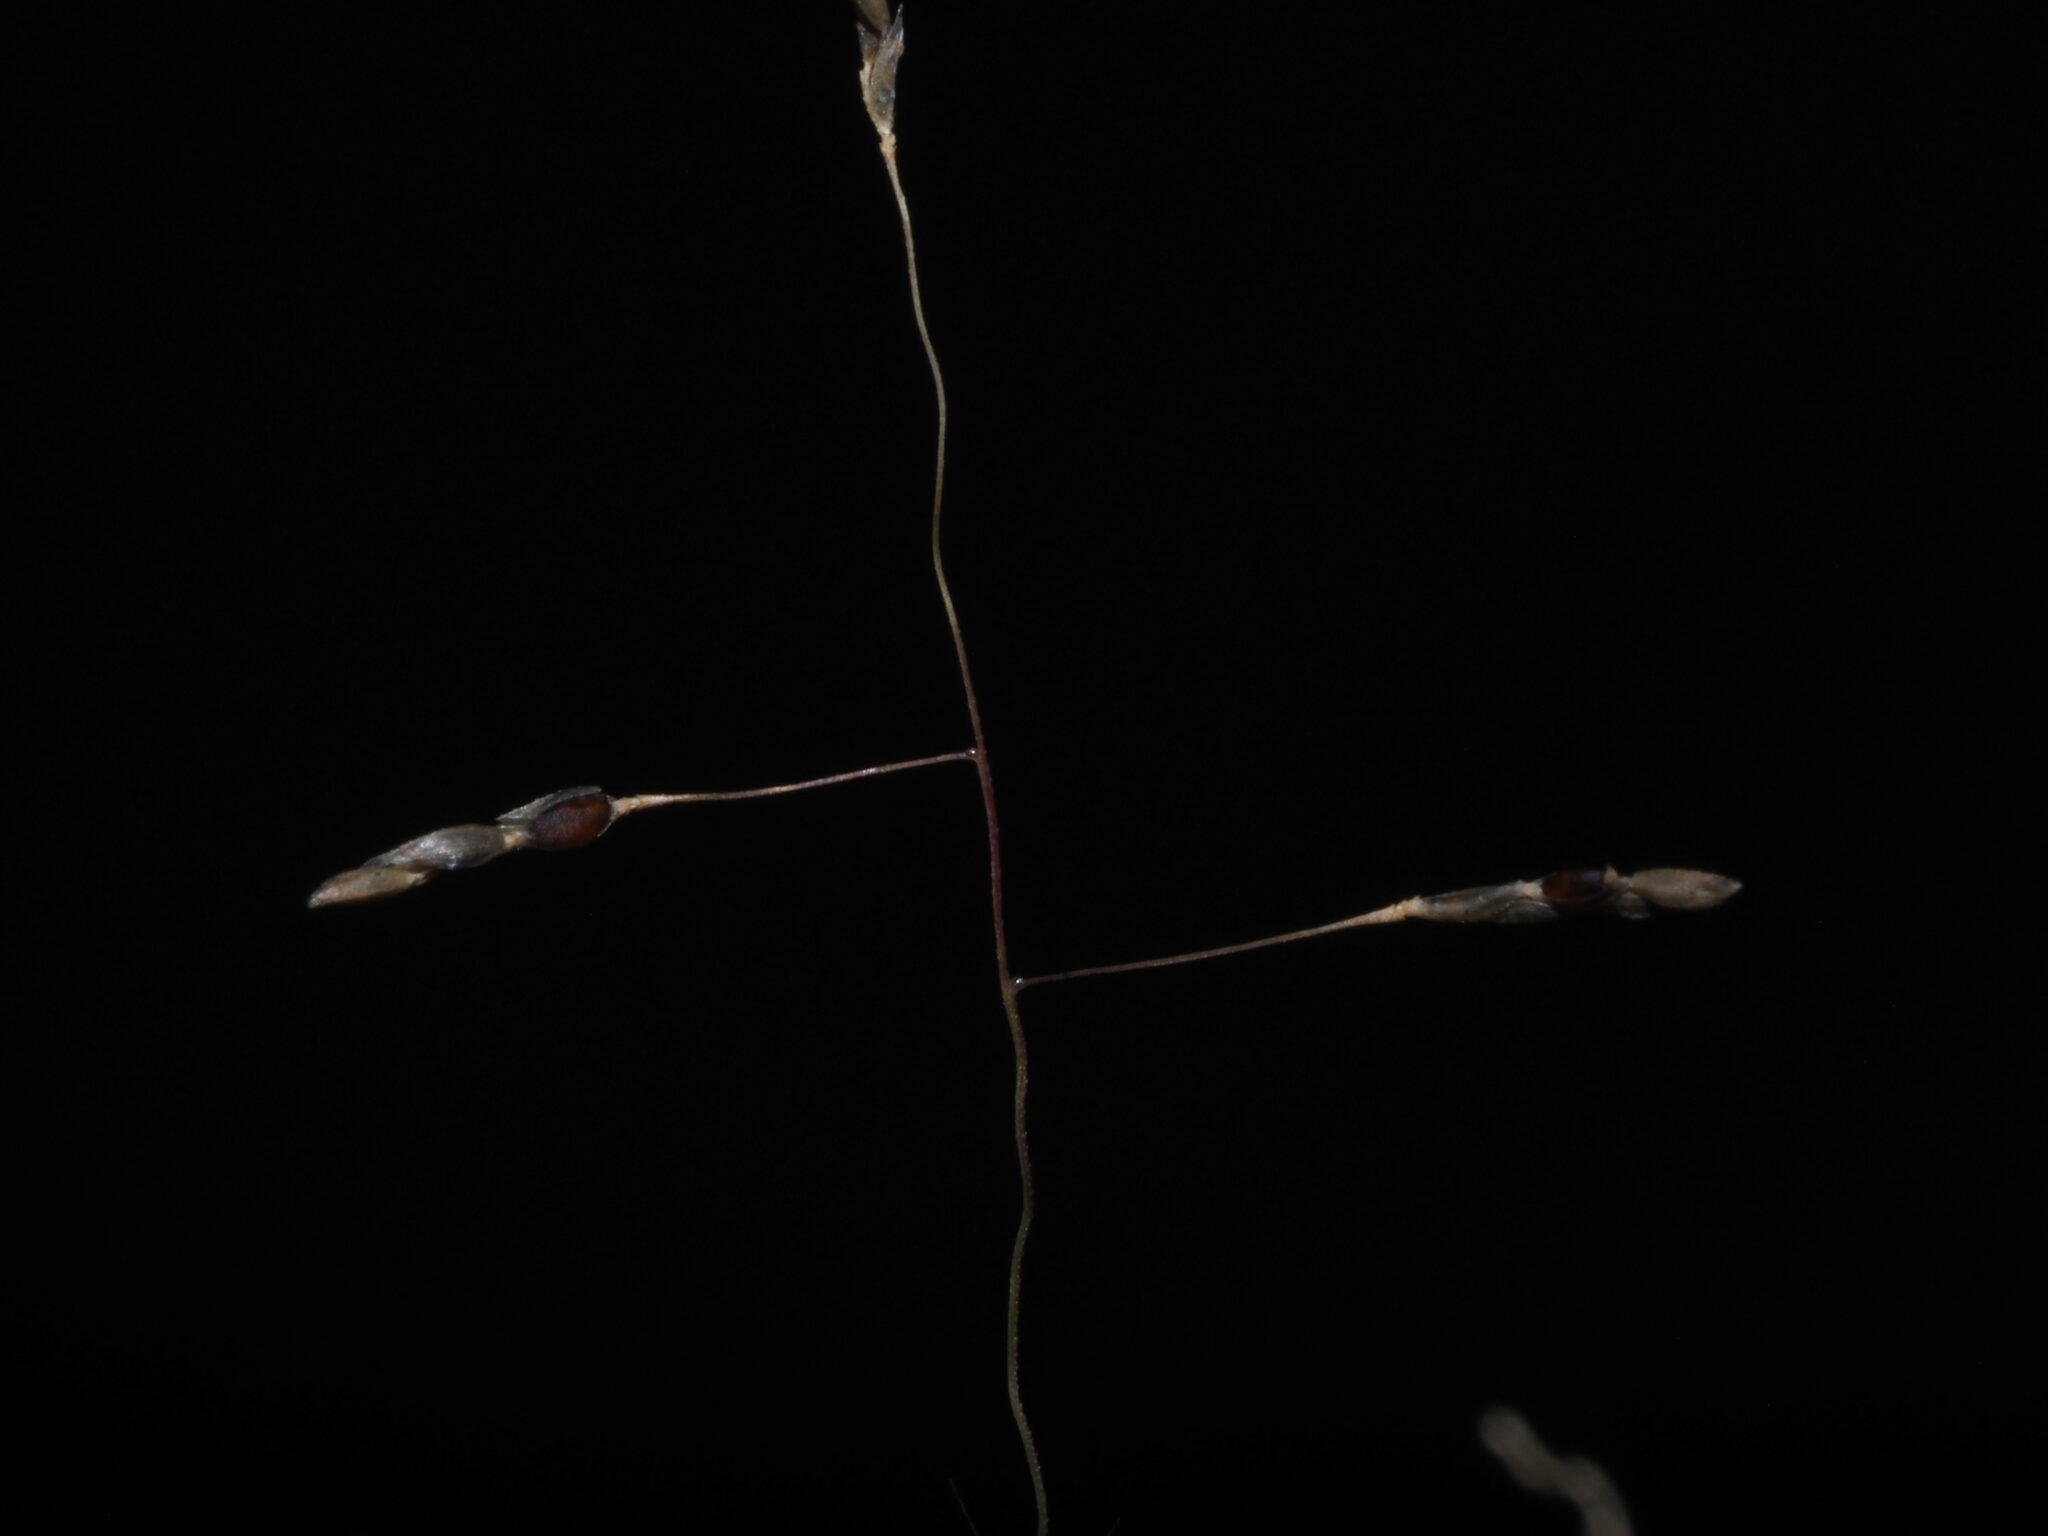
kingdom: Plantae
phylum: Tracheophyta
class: Liliopsida
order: Poales
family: Poaceae
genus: Eragrostis
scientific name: Eragrostis pilosa
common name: Indian lovegrass
